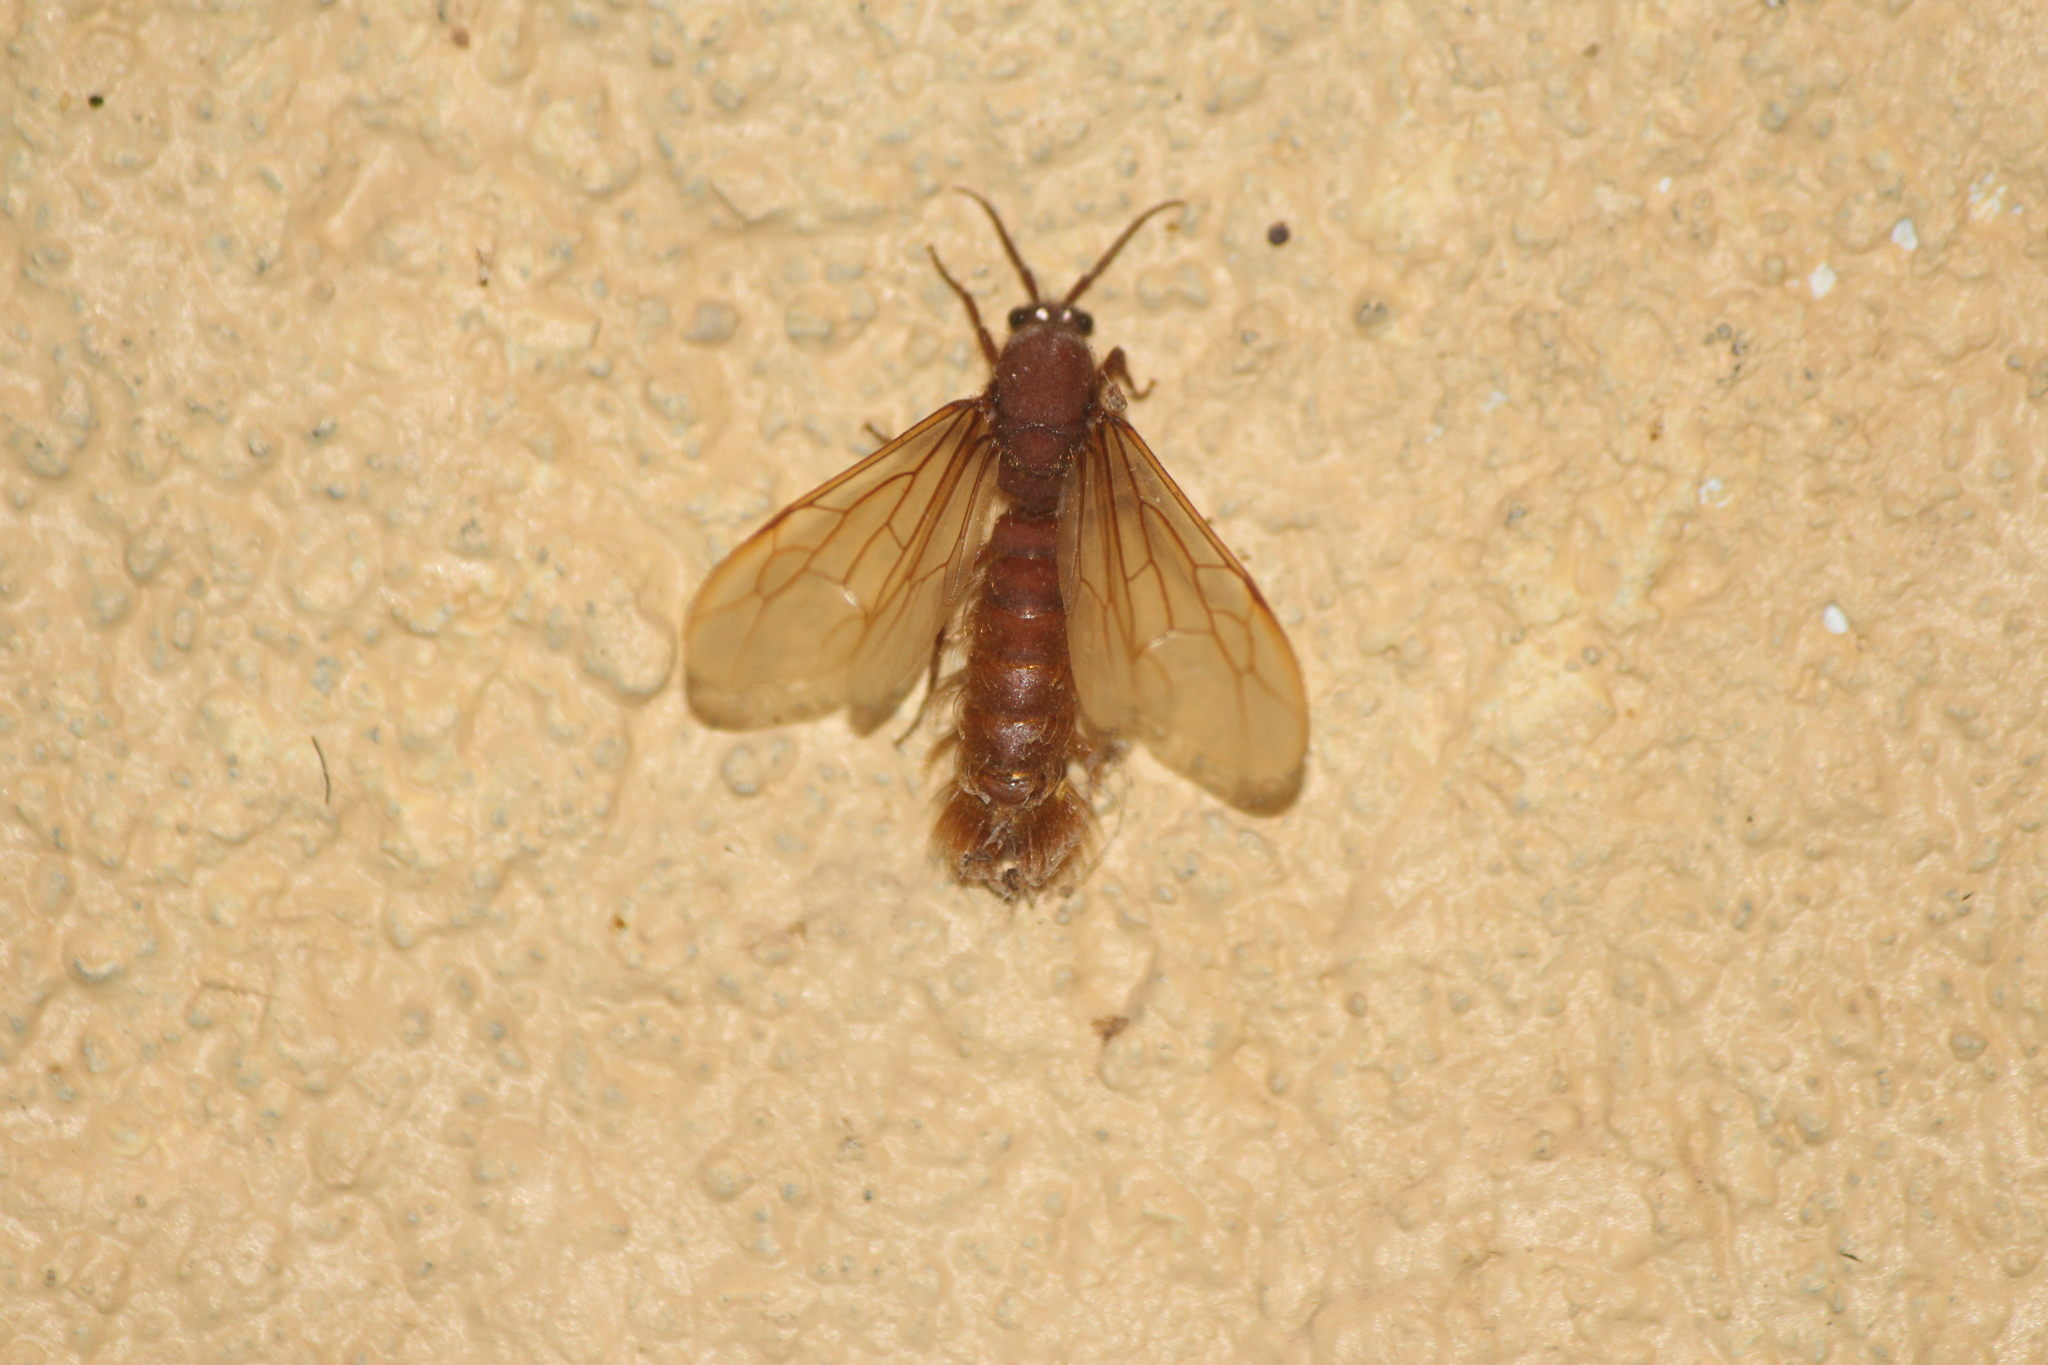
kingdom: Animalia
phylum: Arthropoda
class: Insecta
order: Hymenoptera
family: Formicidae
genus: Nomamyrmex
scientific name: Nomamyrmex esenbeckii
